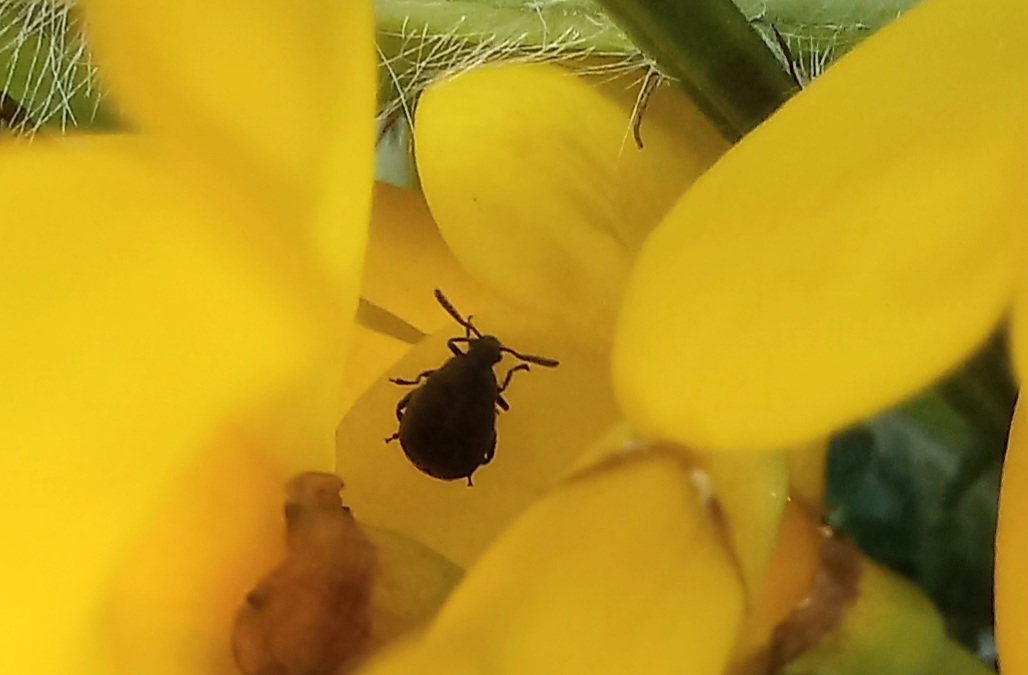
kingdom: Animalia
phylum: Arthropoda
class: Insecta
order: Coleoptera
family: Chrysomelidae
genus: Bruchidius
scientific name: Bruchidius villosus
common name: Scotch broom bruchid
